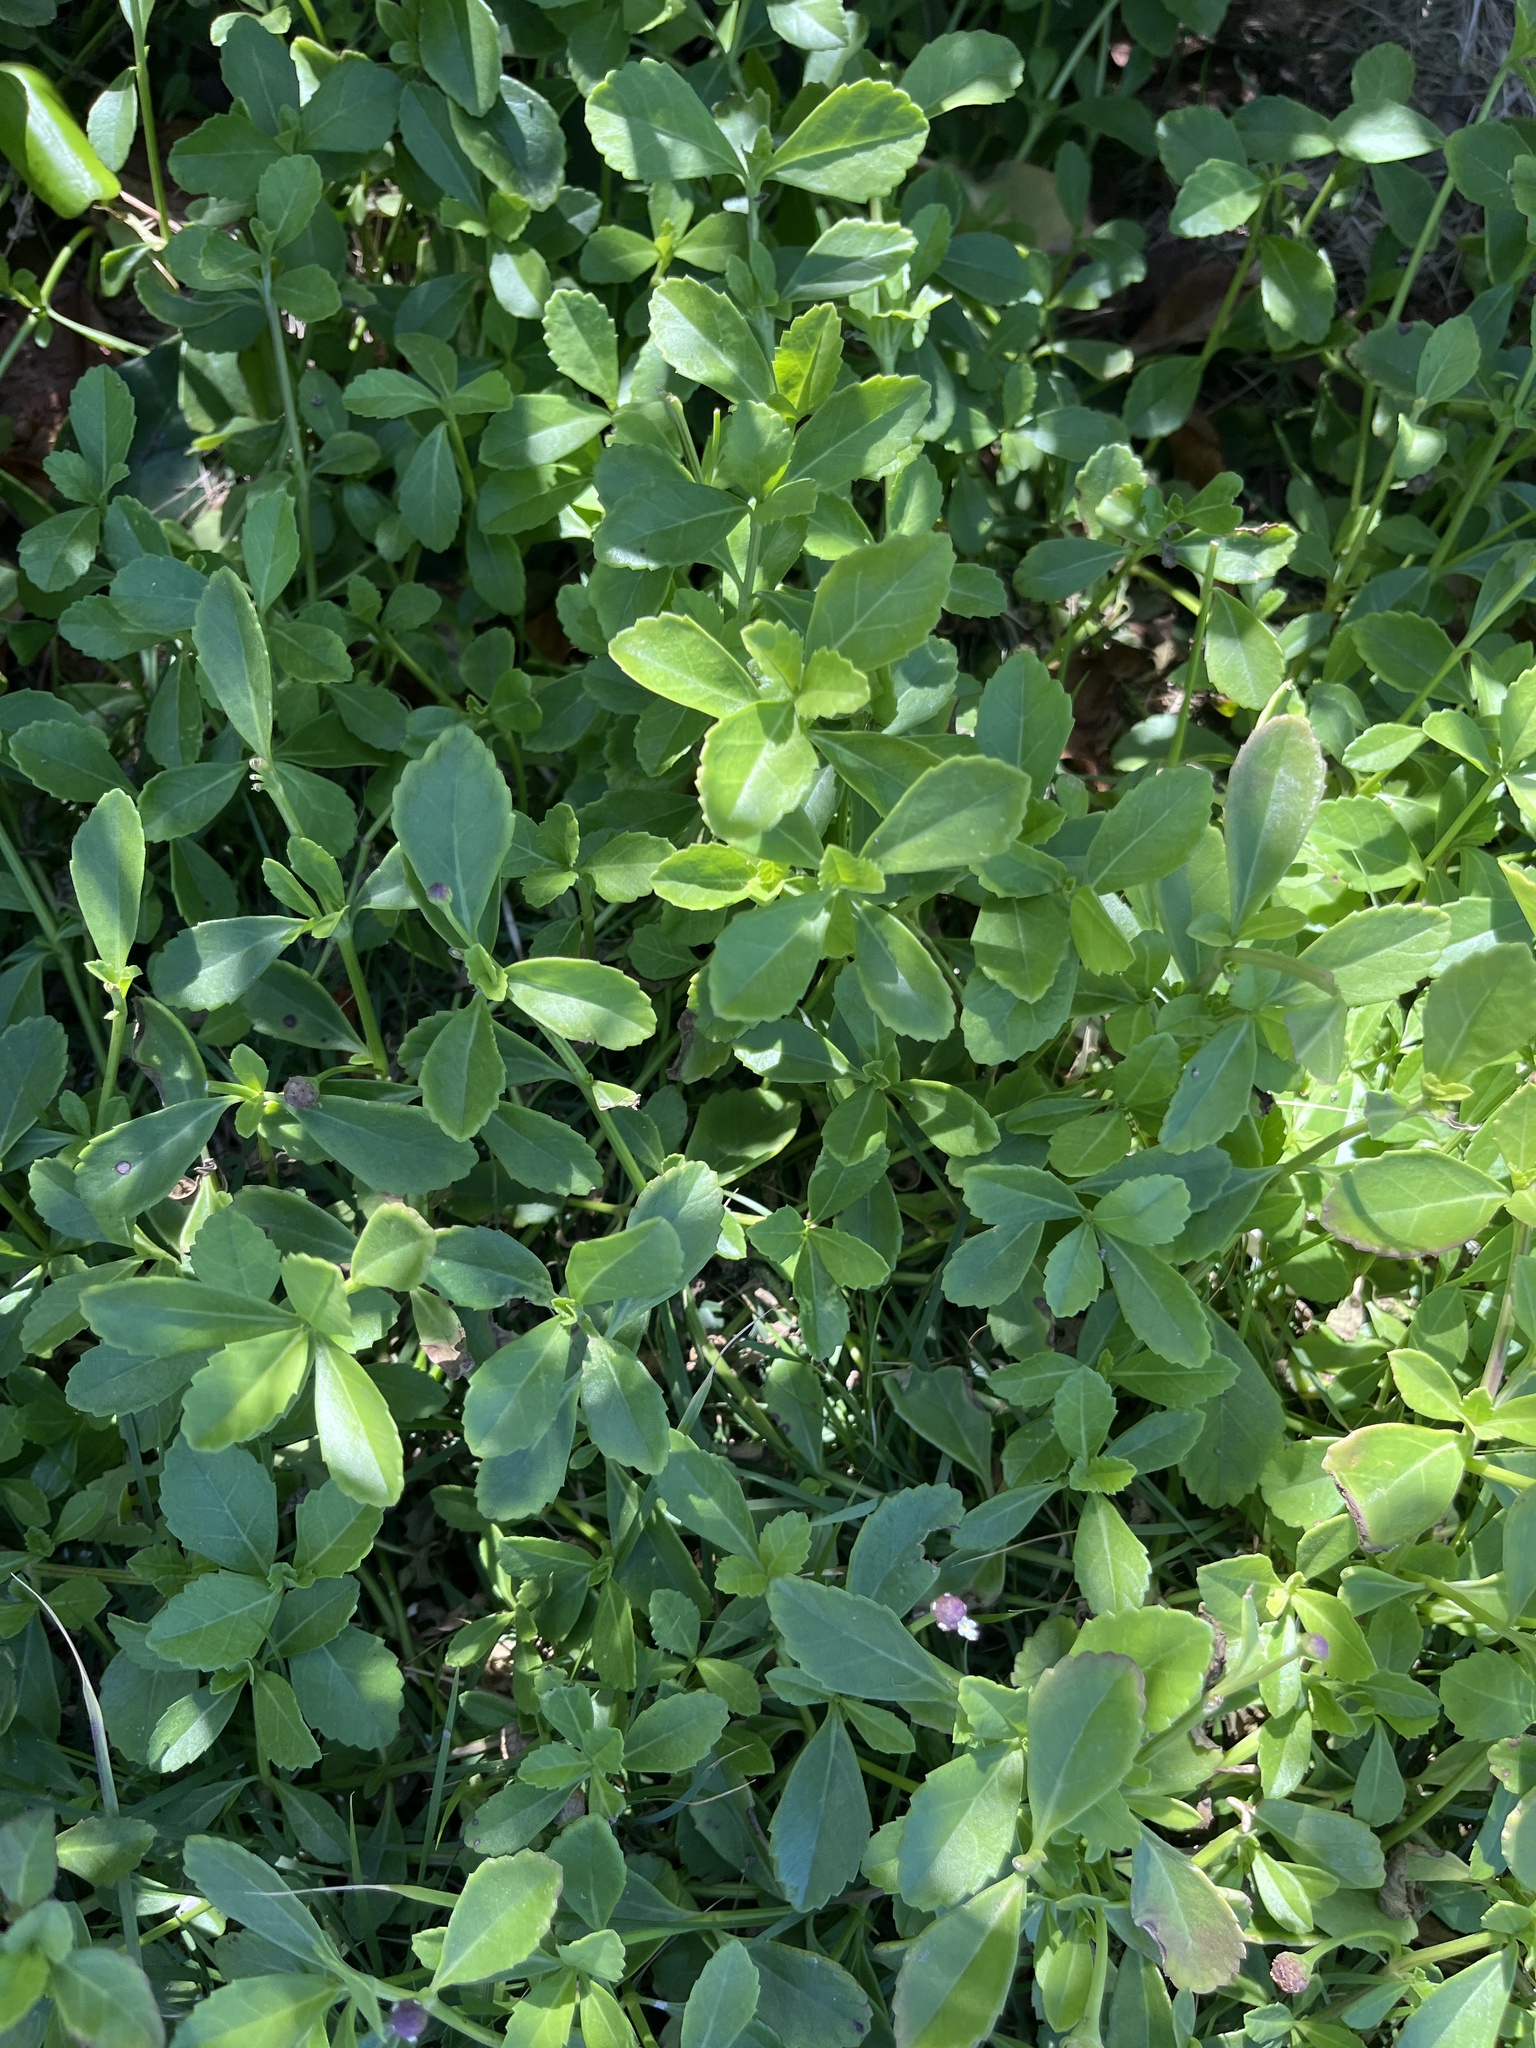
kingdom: Plantae
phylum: Tracheophyta
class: Magnoliopsida
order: Lamiales
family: Verbenaceae
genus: Phyla
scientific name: Phyla nodiflora
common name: Frogfruit
